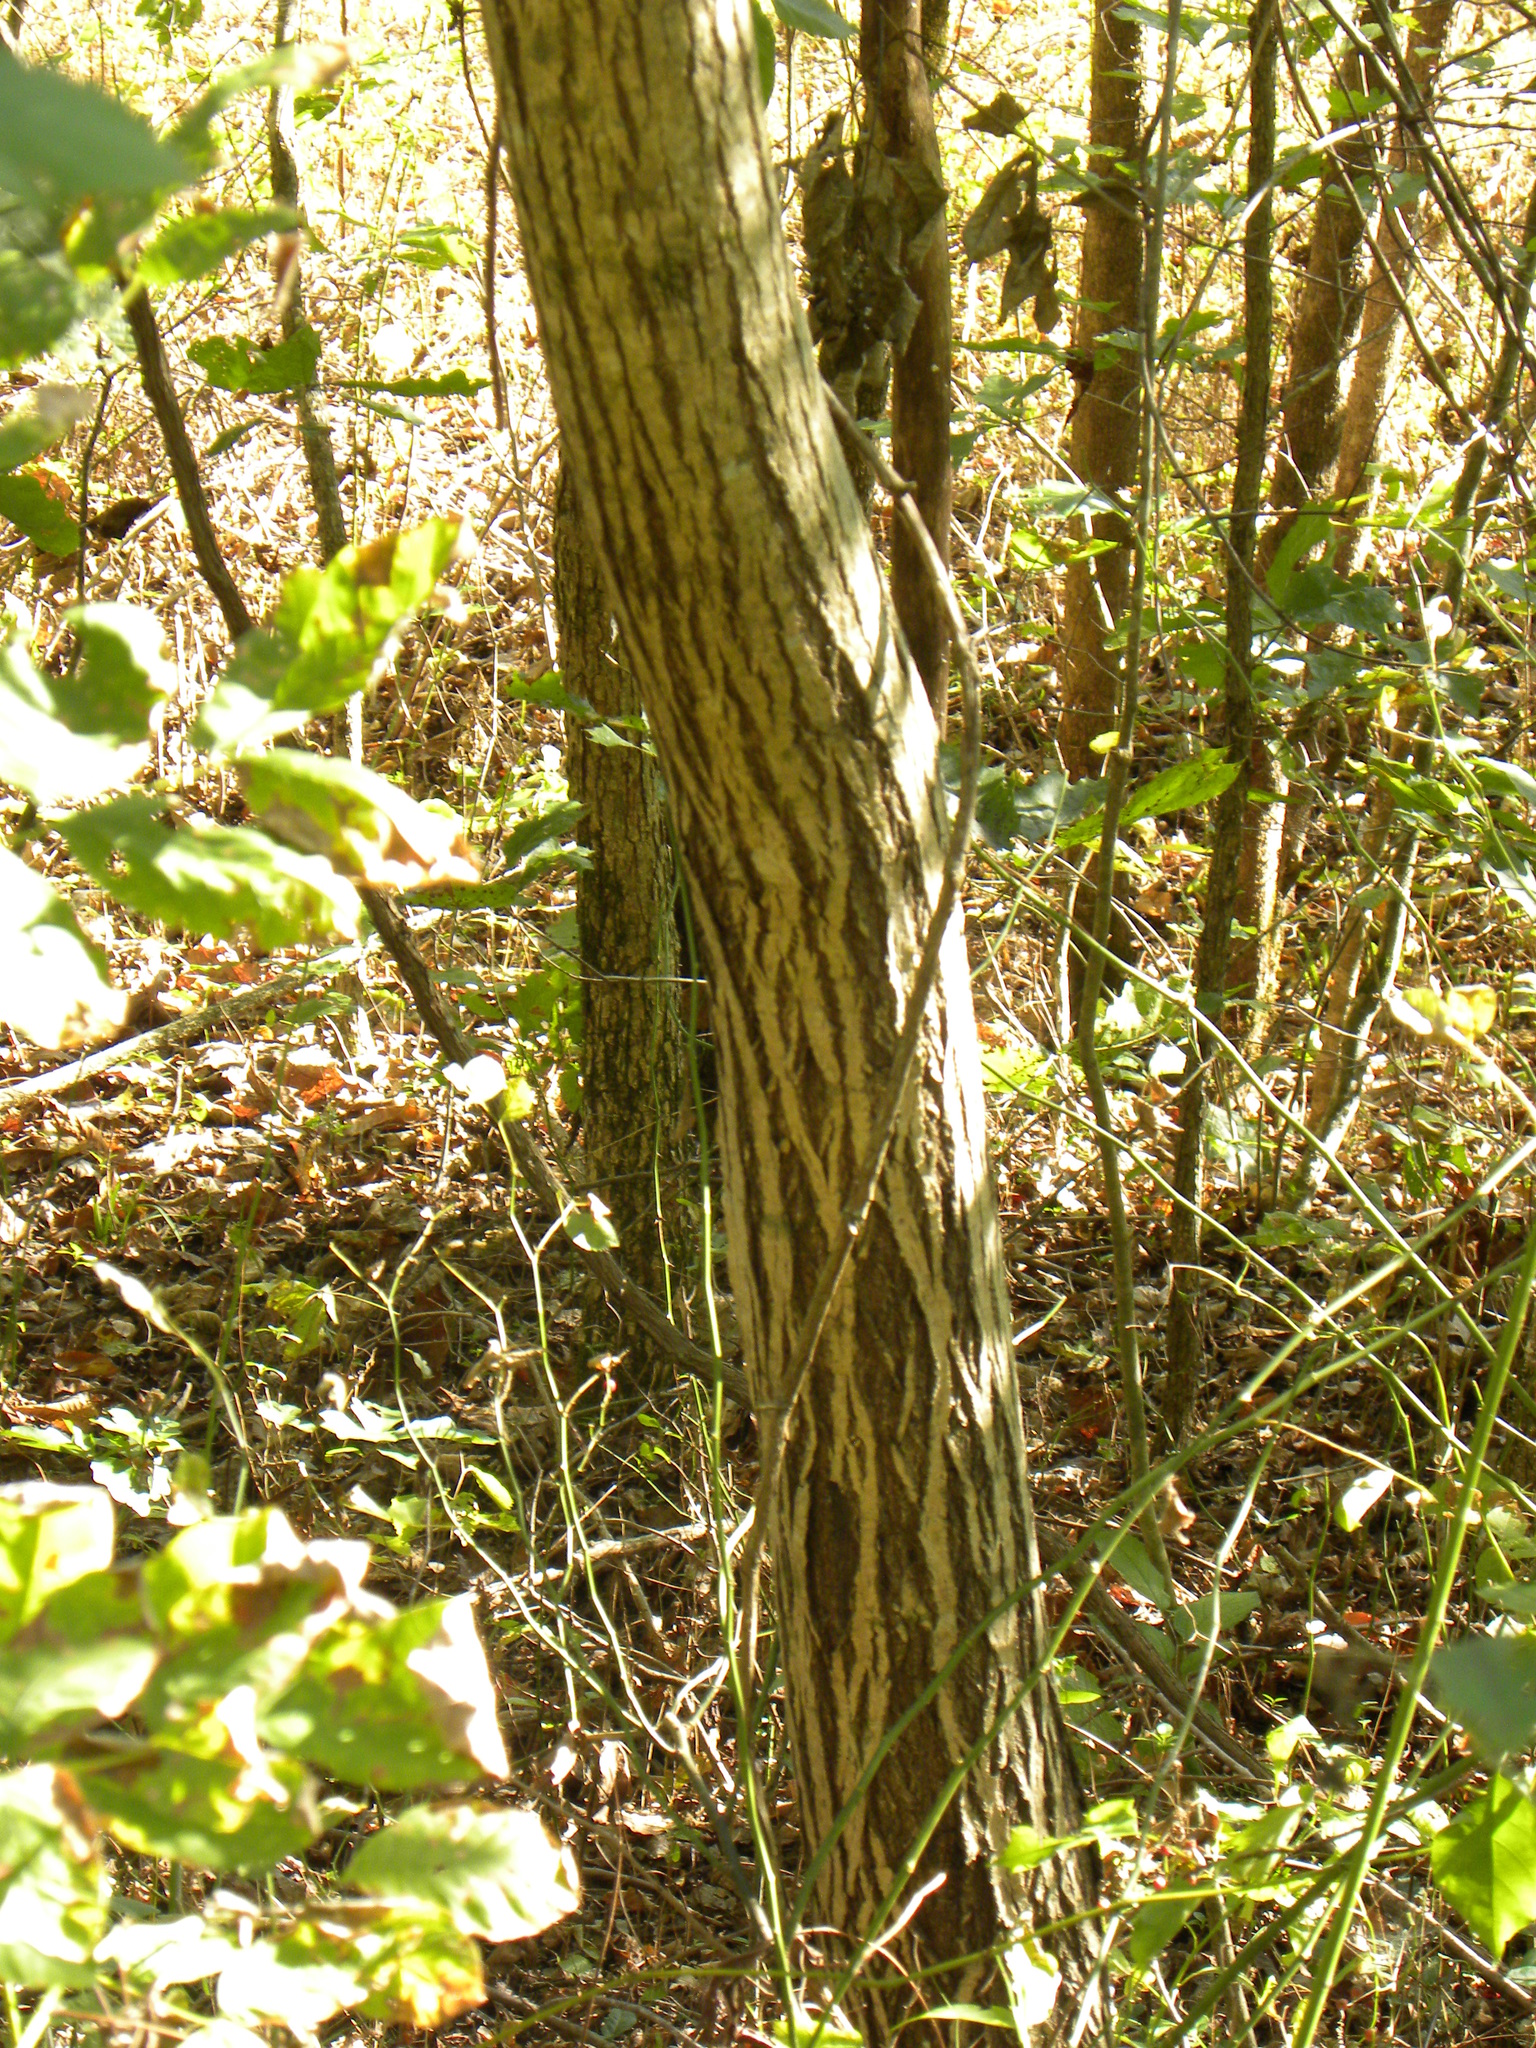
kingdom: Plantae
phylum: Tracheophyta
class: Magnoliopsida
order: Fagales
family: Juglandaceae
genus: Juglans
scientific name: Juglans cinerea
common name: Butternut
